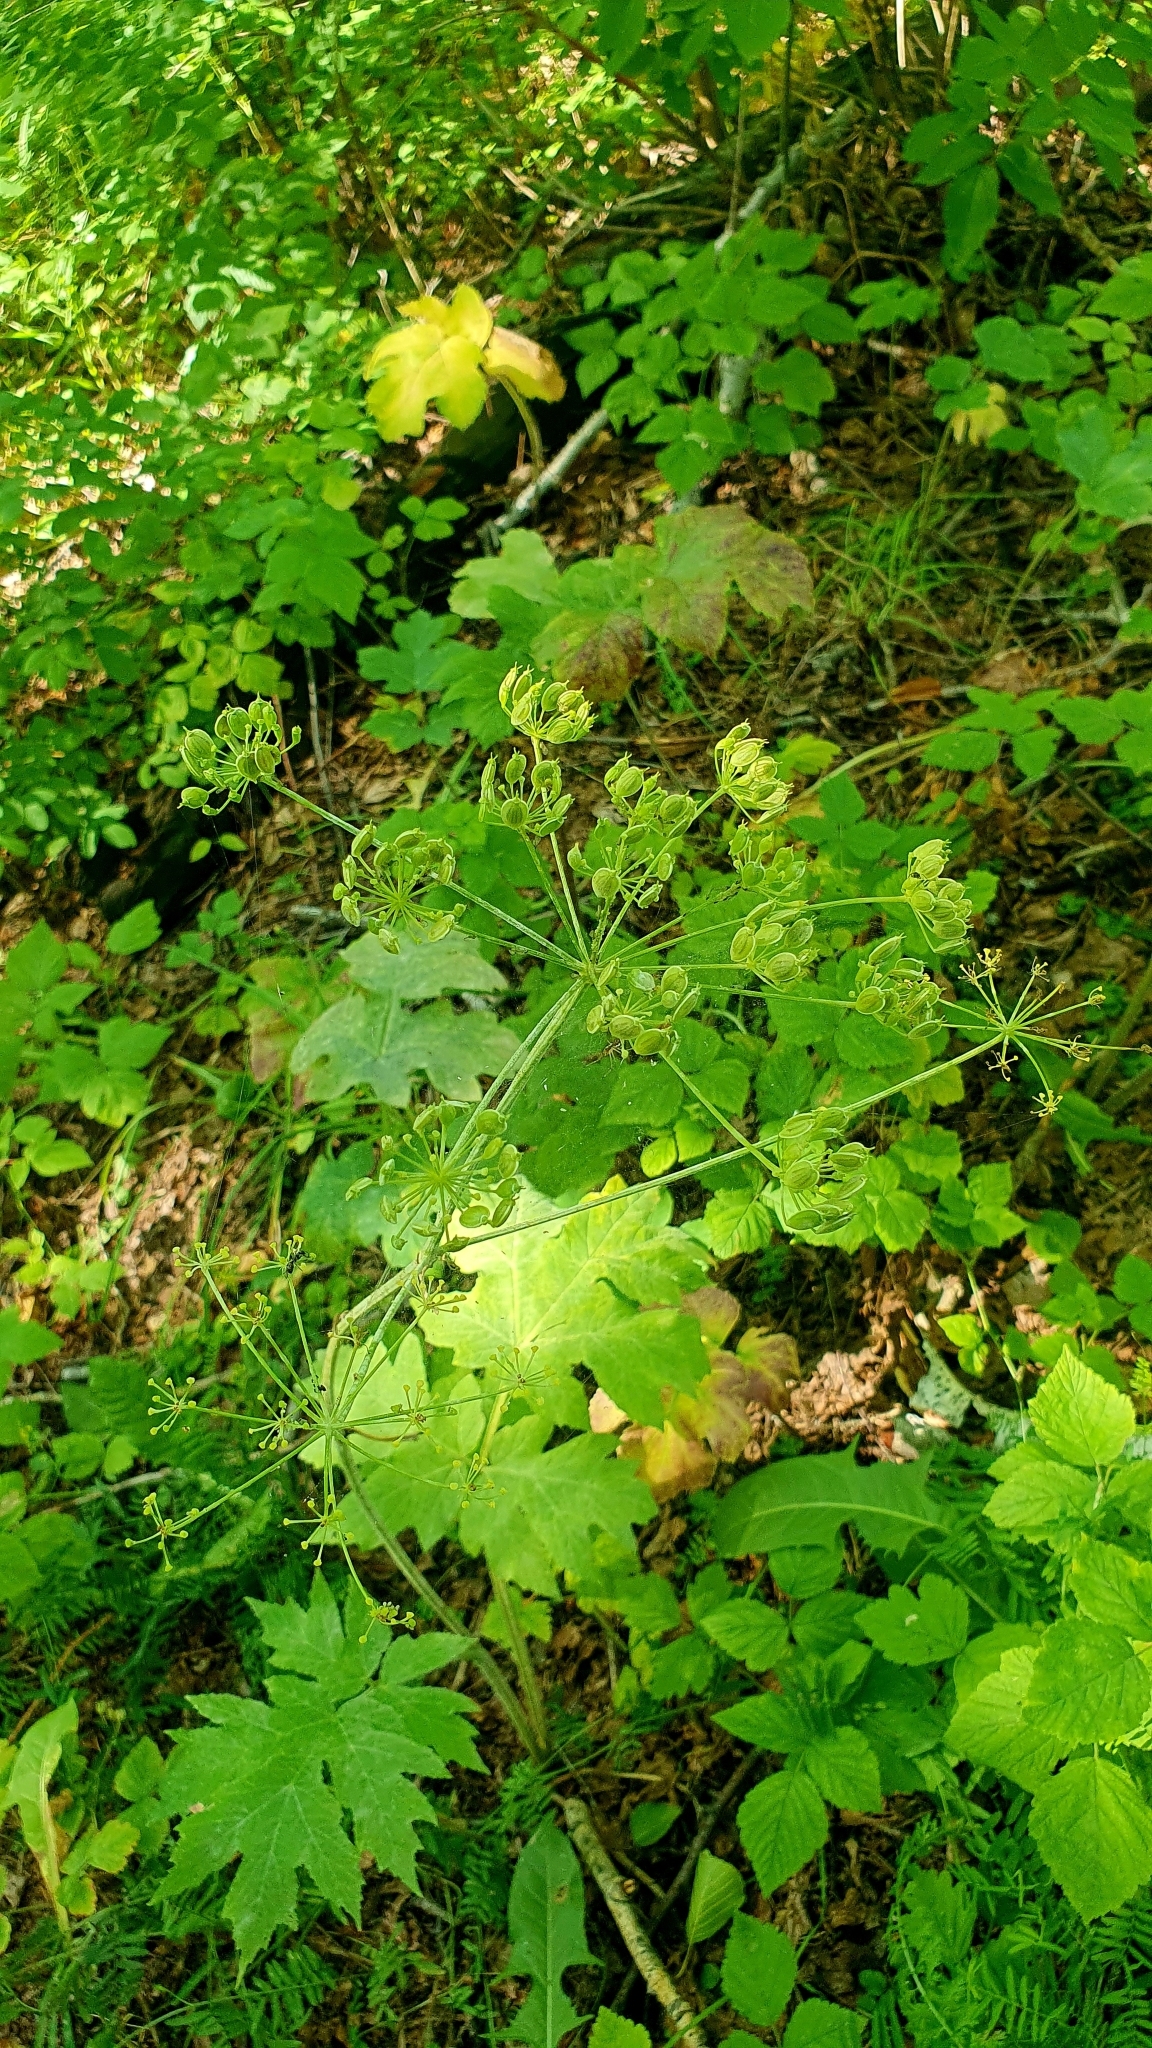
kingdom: Plantae
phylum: Tracheophyta
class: Magnoliopsida
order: Apiales
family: Apiaceae
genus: Heracleum
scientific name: Heracleum sphondylium
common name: Hogweed
